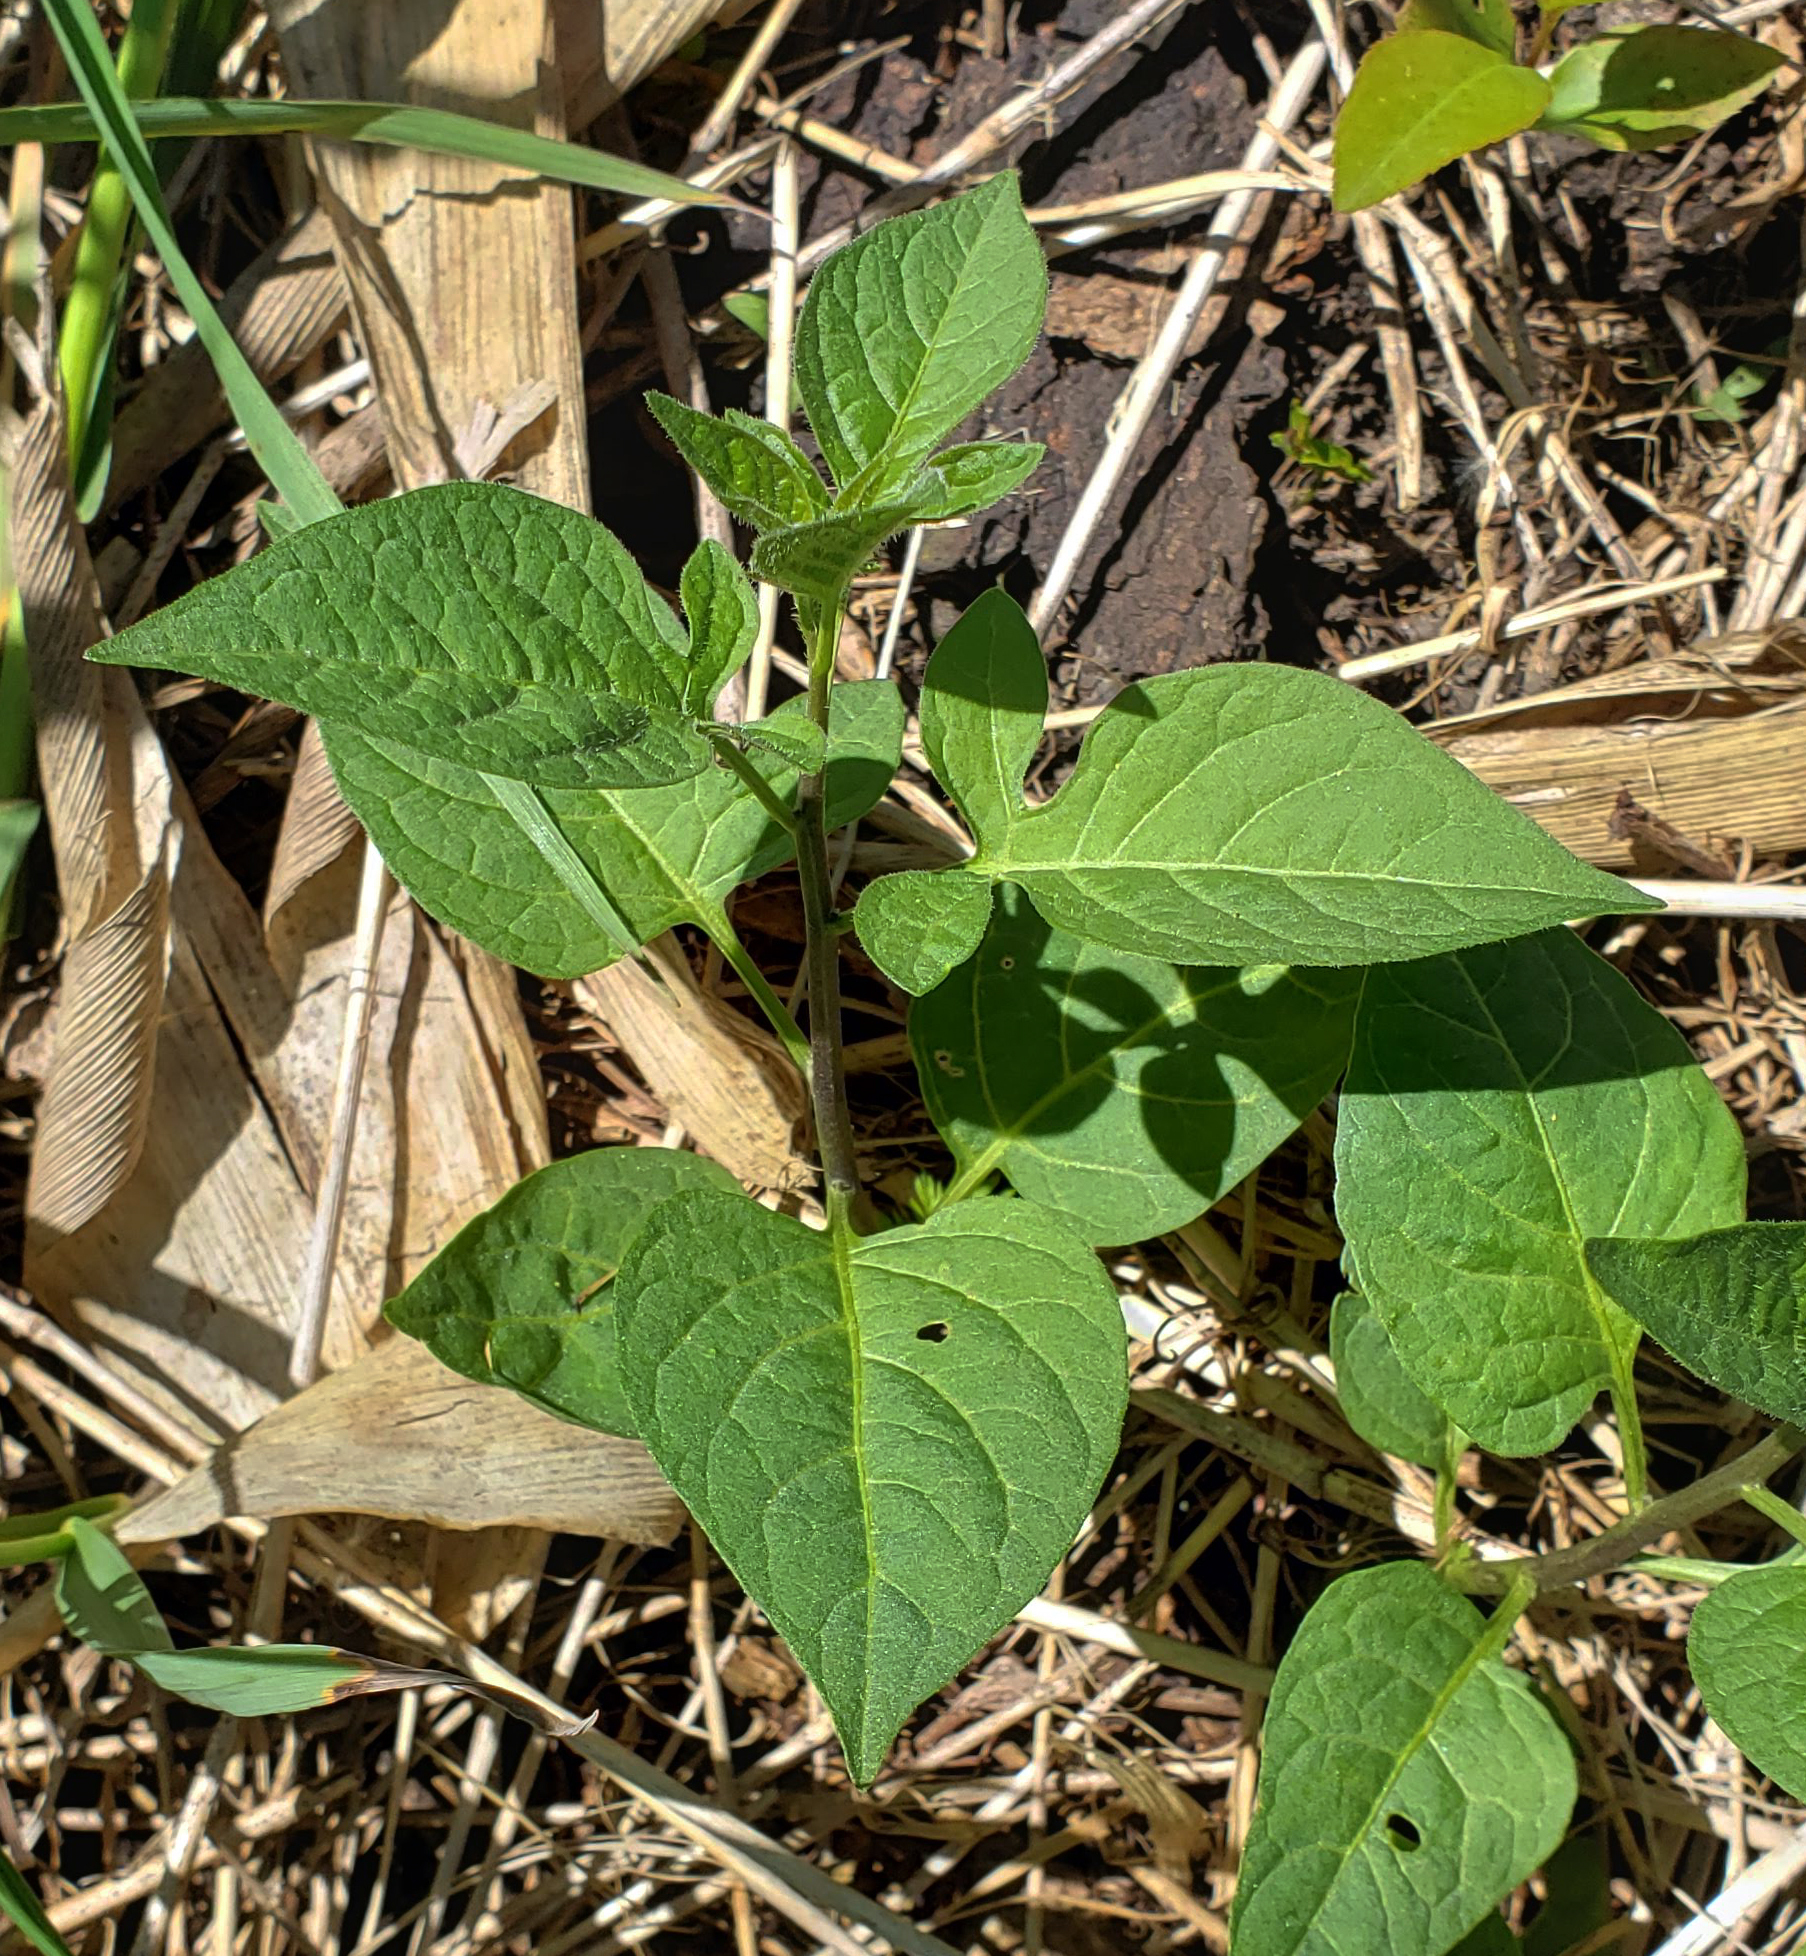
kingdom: Plantae
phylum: Tracheophyta
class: Magnoliopsida
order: Solanales
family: Solanaceae
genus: Solanum
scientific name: Solanum dulcamara
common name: Climbing nightshade
